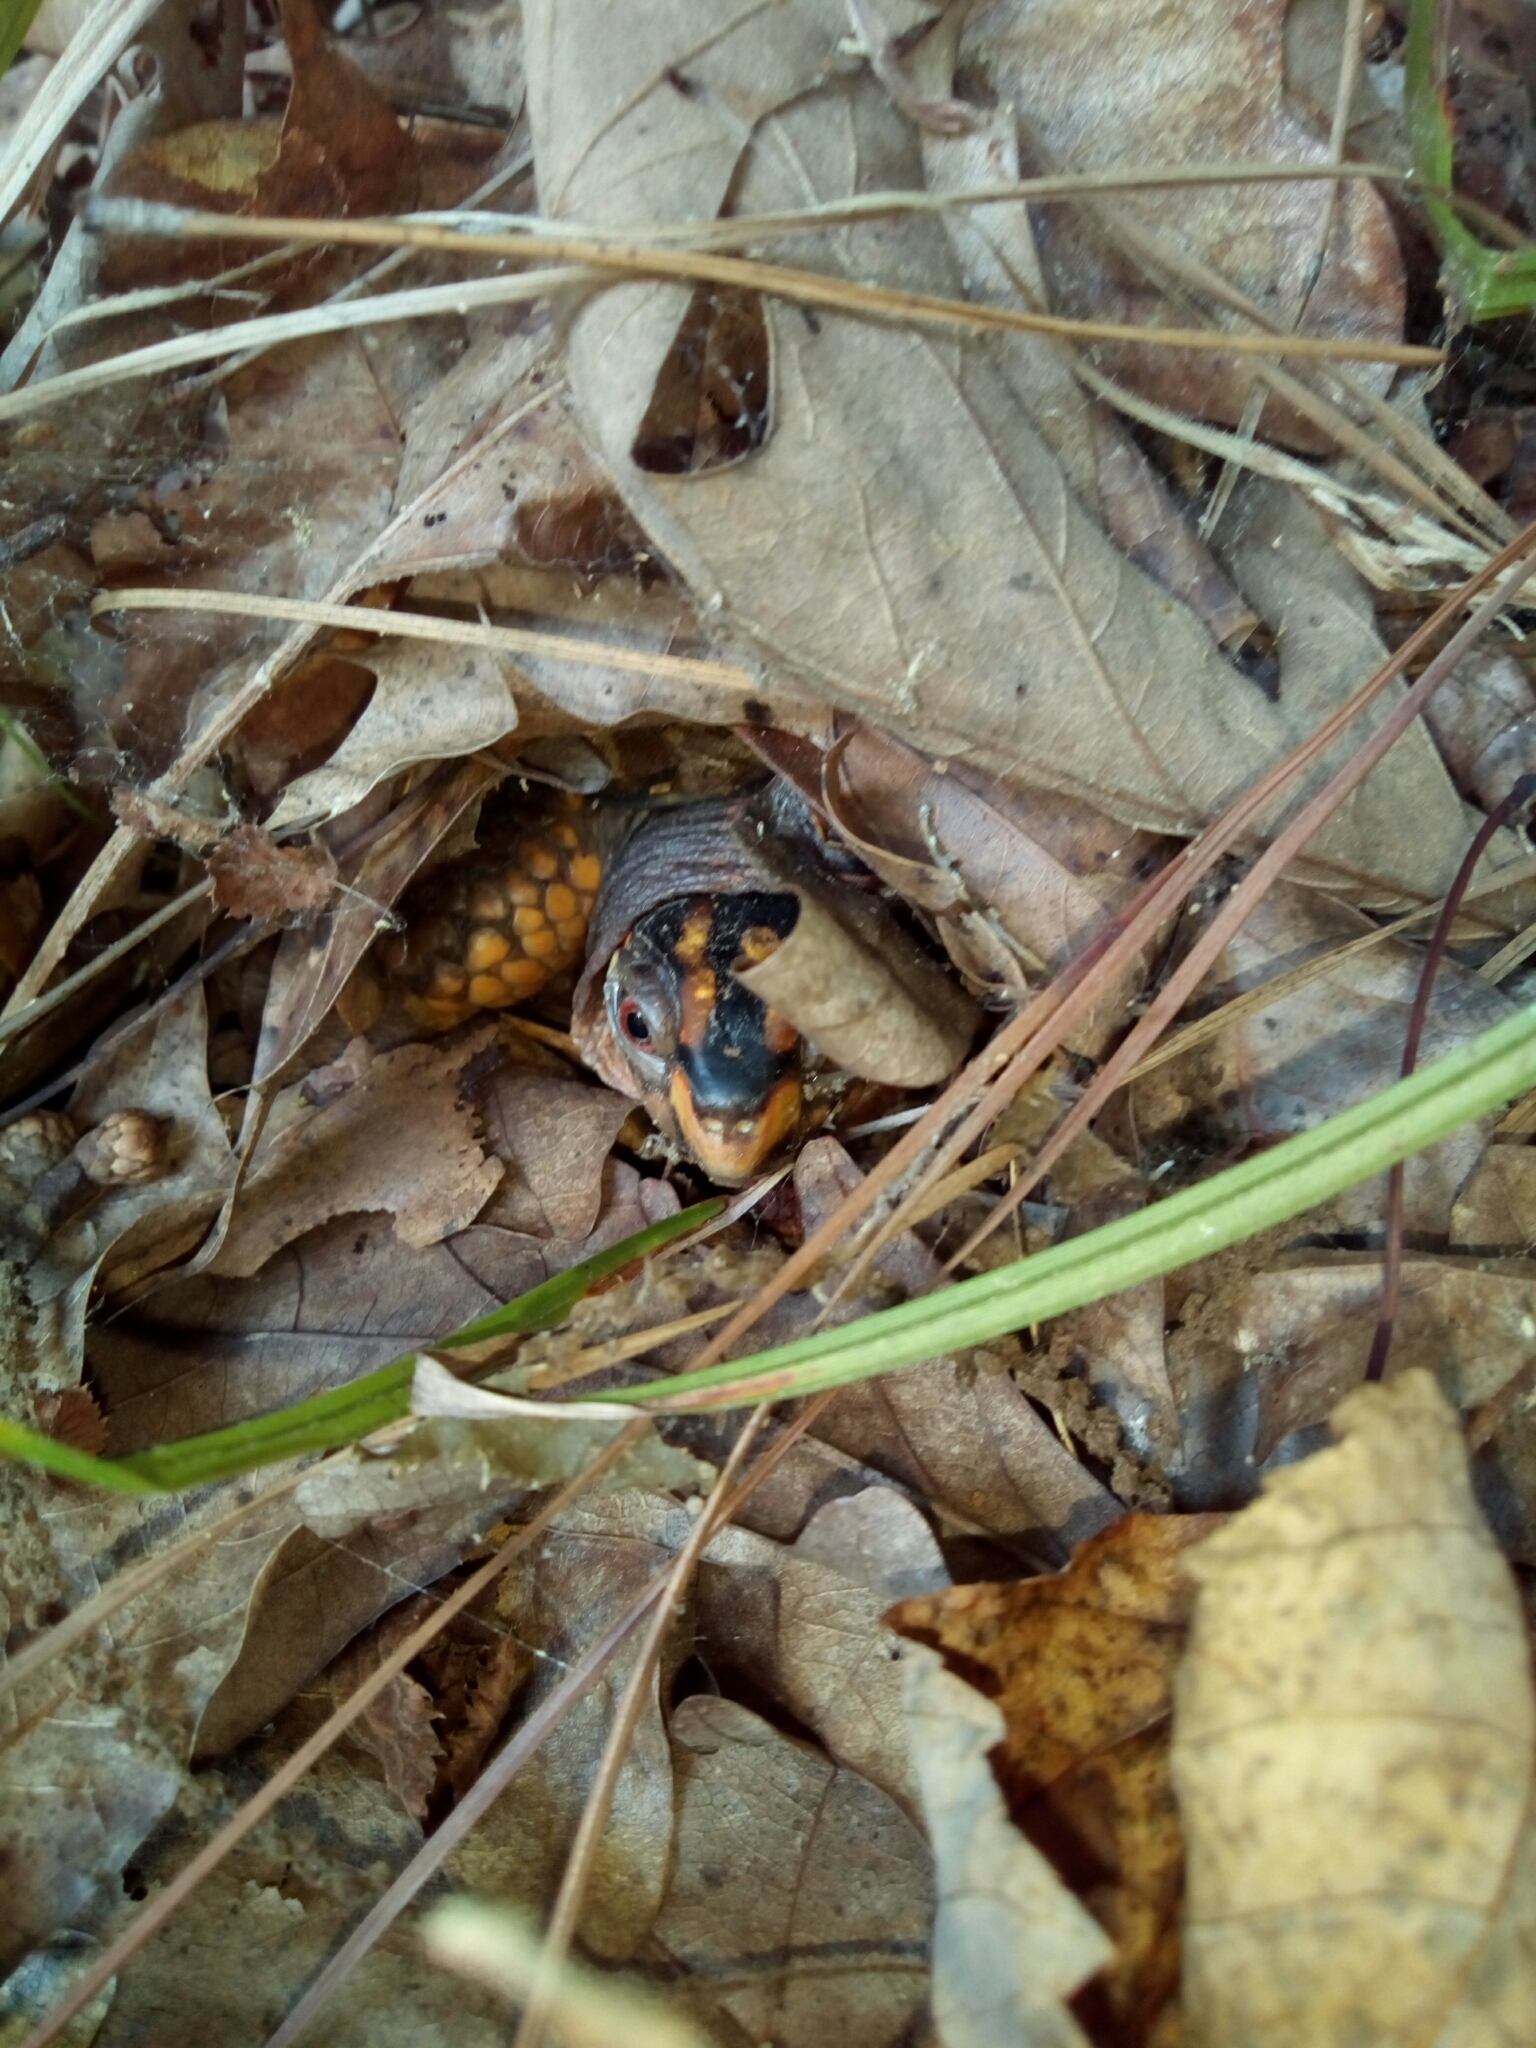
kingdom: Animalia
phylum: Chordata
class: Testudines
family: Emydidae
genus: Terrapene
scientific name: Terrapene carolina
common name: Common box turtle
